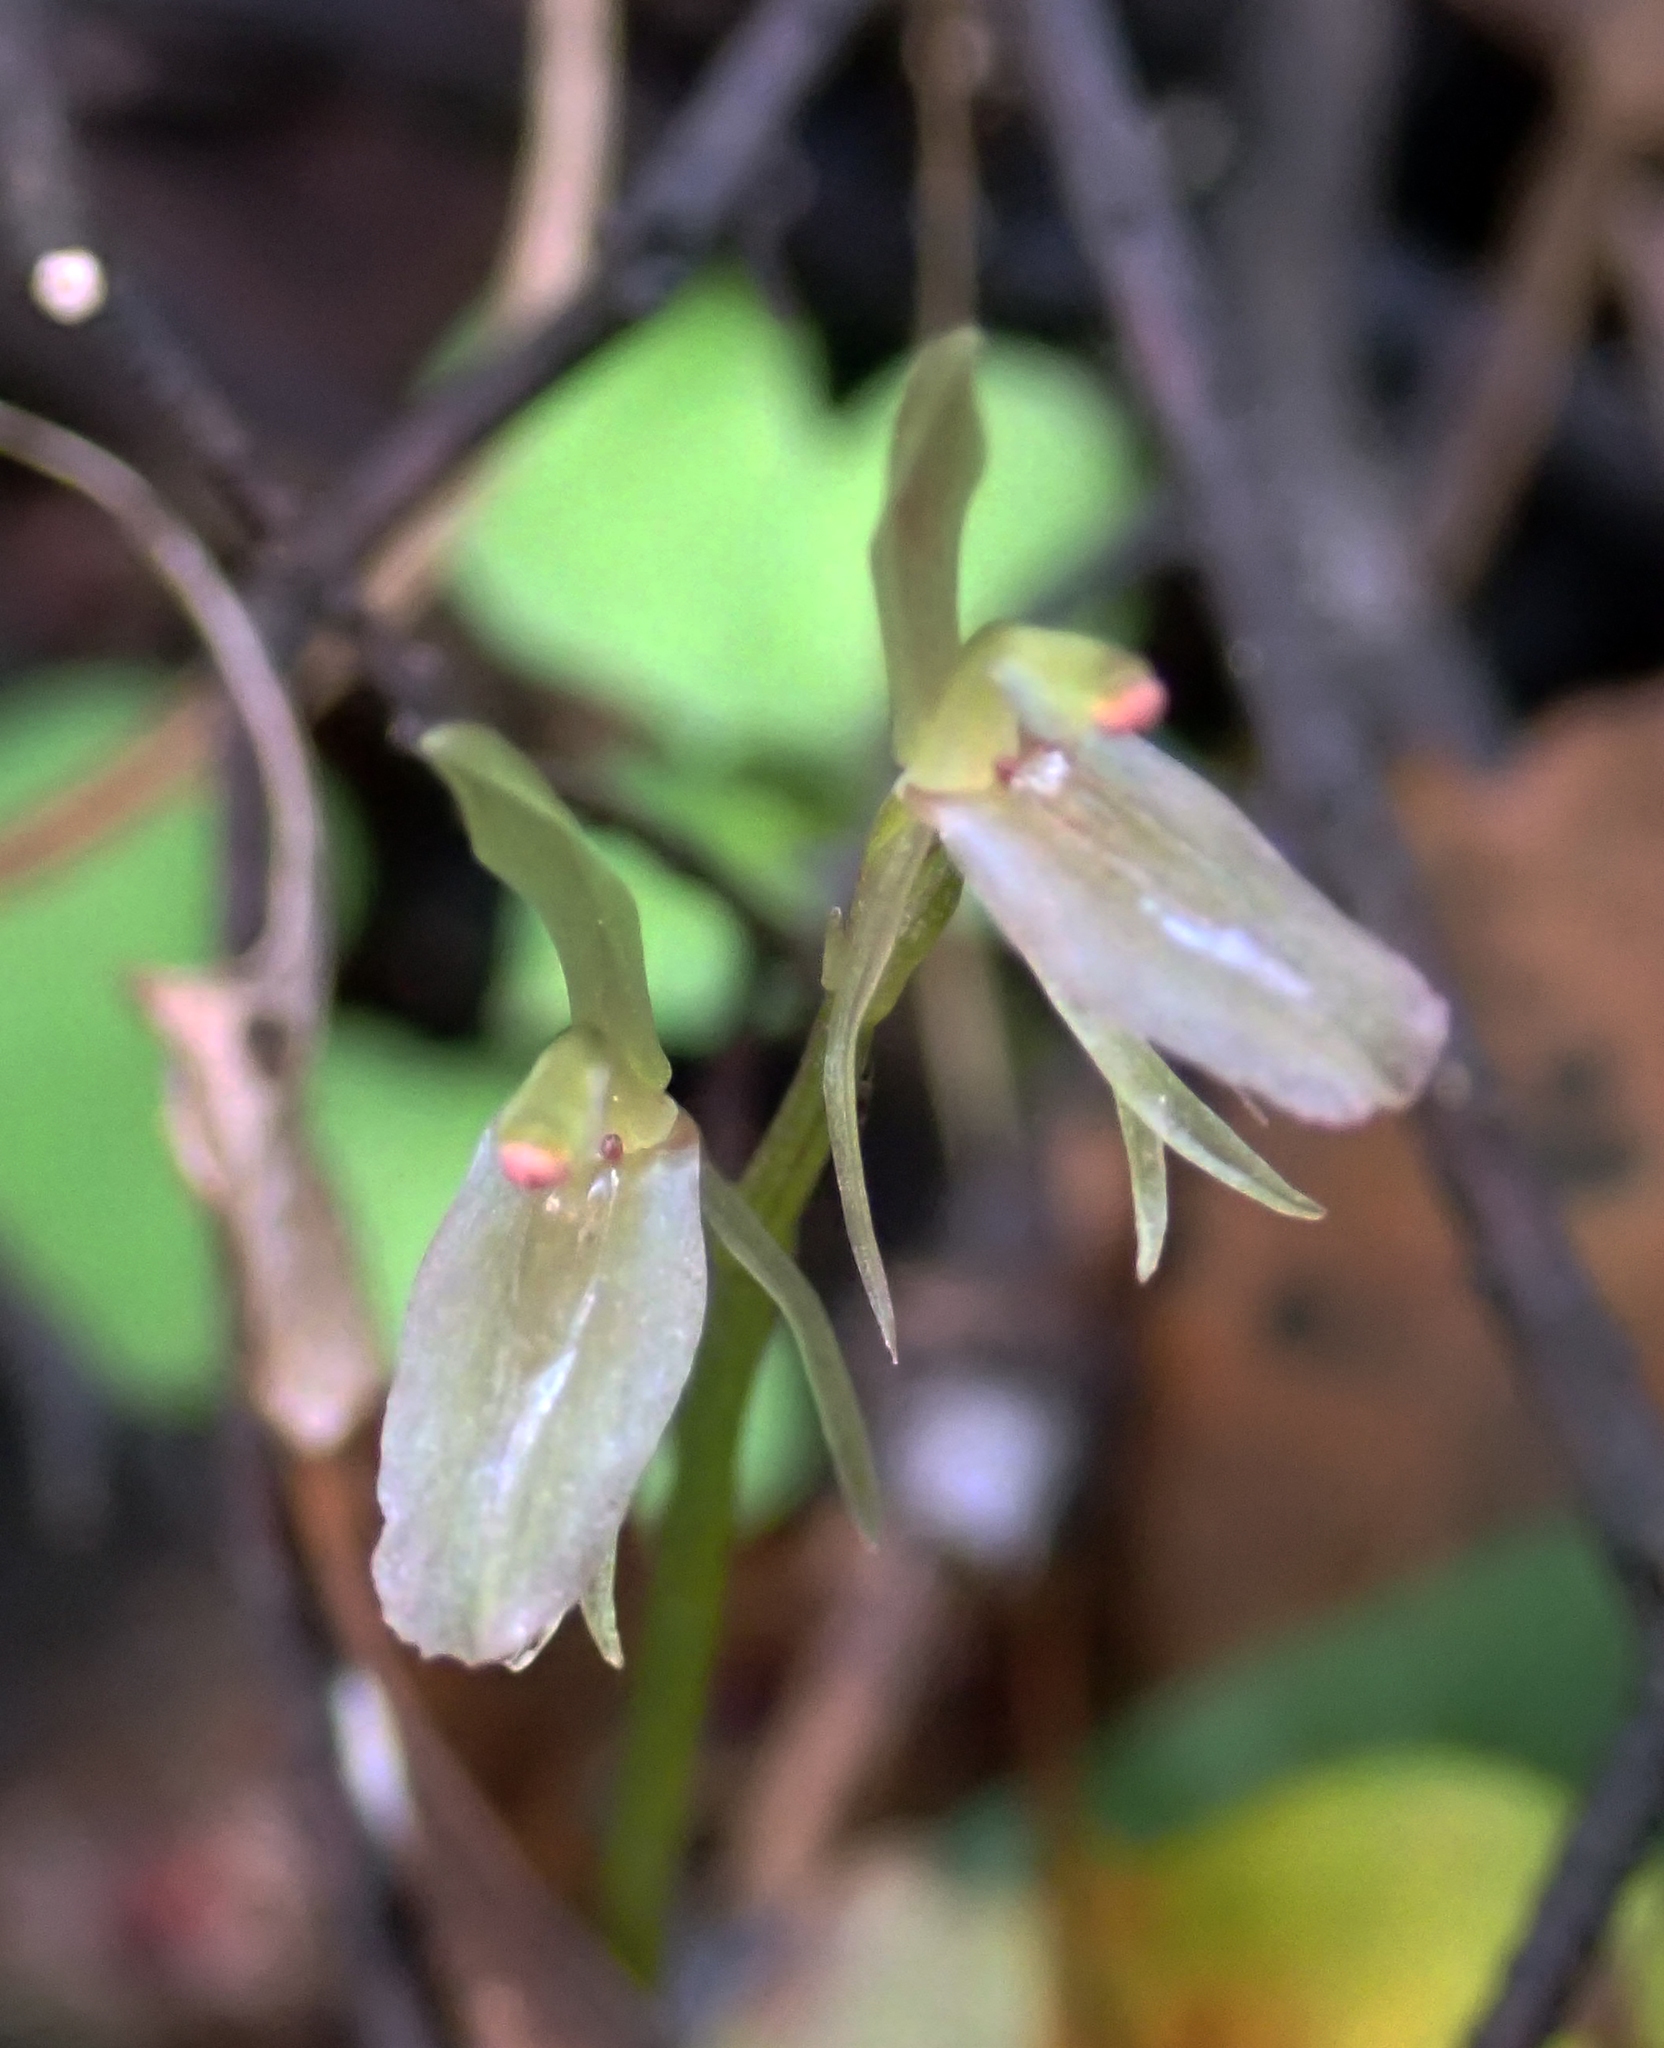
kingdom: Plantae
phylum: Tracheophyta
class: Liliopsida
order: Asparagales
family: Orchidaceae
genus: Cyrtostylis
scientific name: Cyrtostylis oblonga
